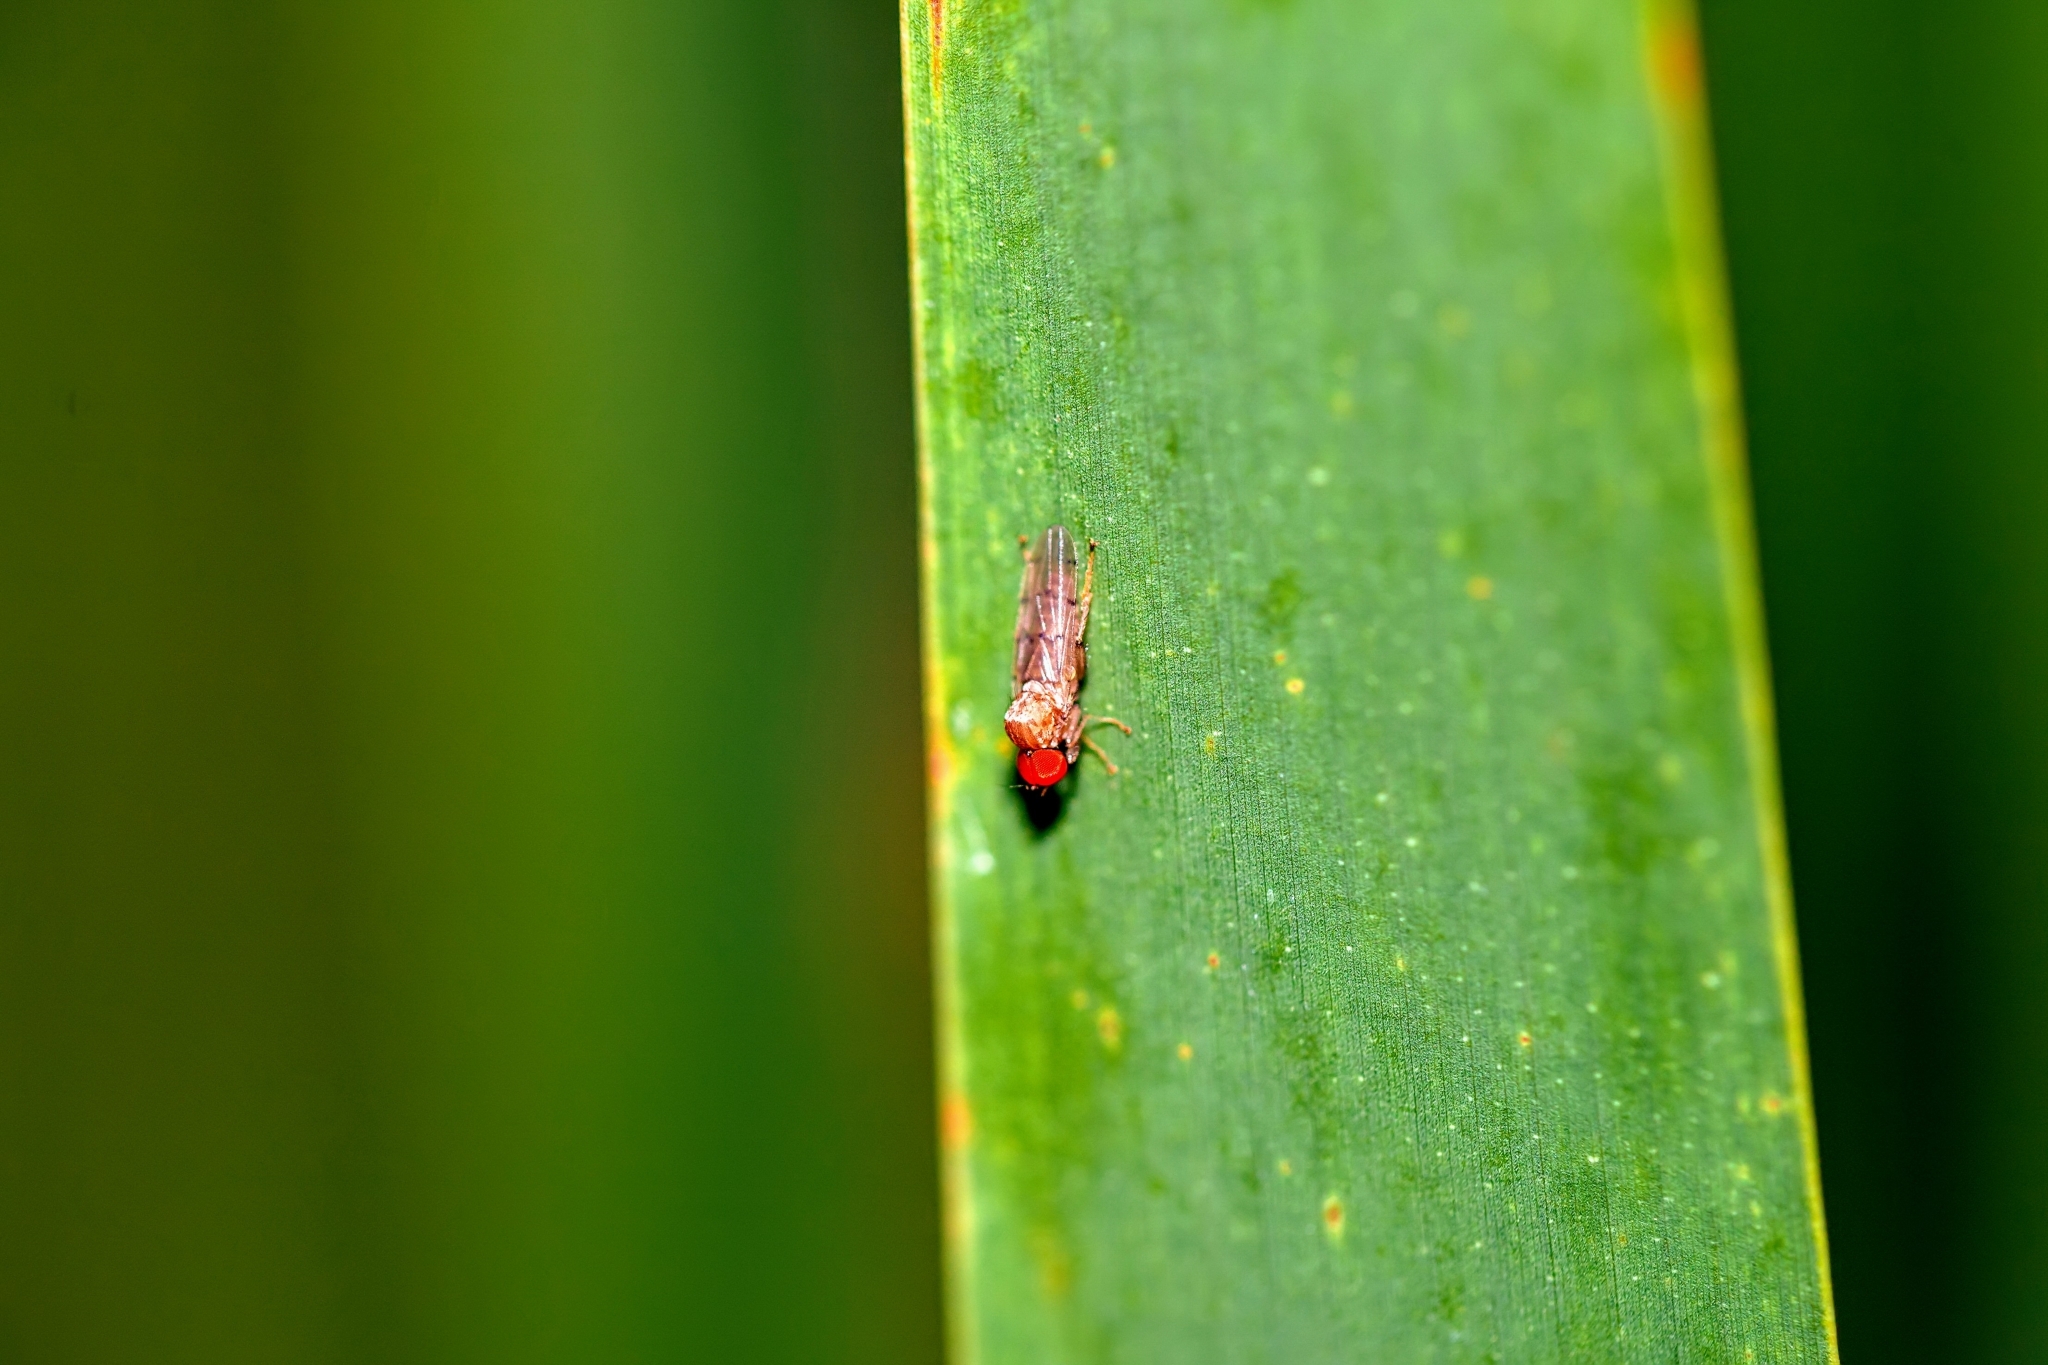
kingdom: Animalia
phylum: Arthropoda
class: Insecta
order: Diptera
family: Hybotidae
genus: Syneches
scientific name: Syneches simplex
